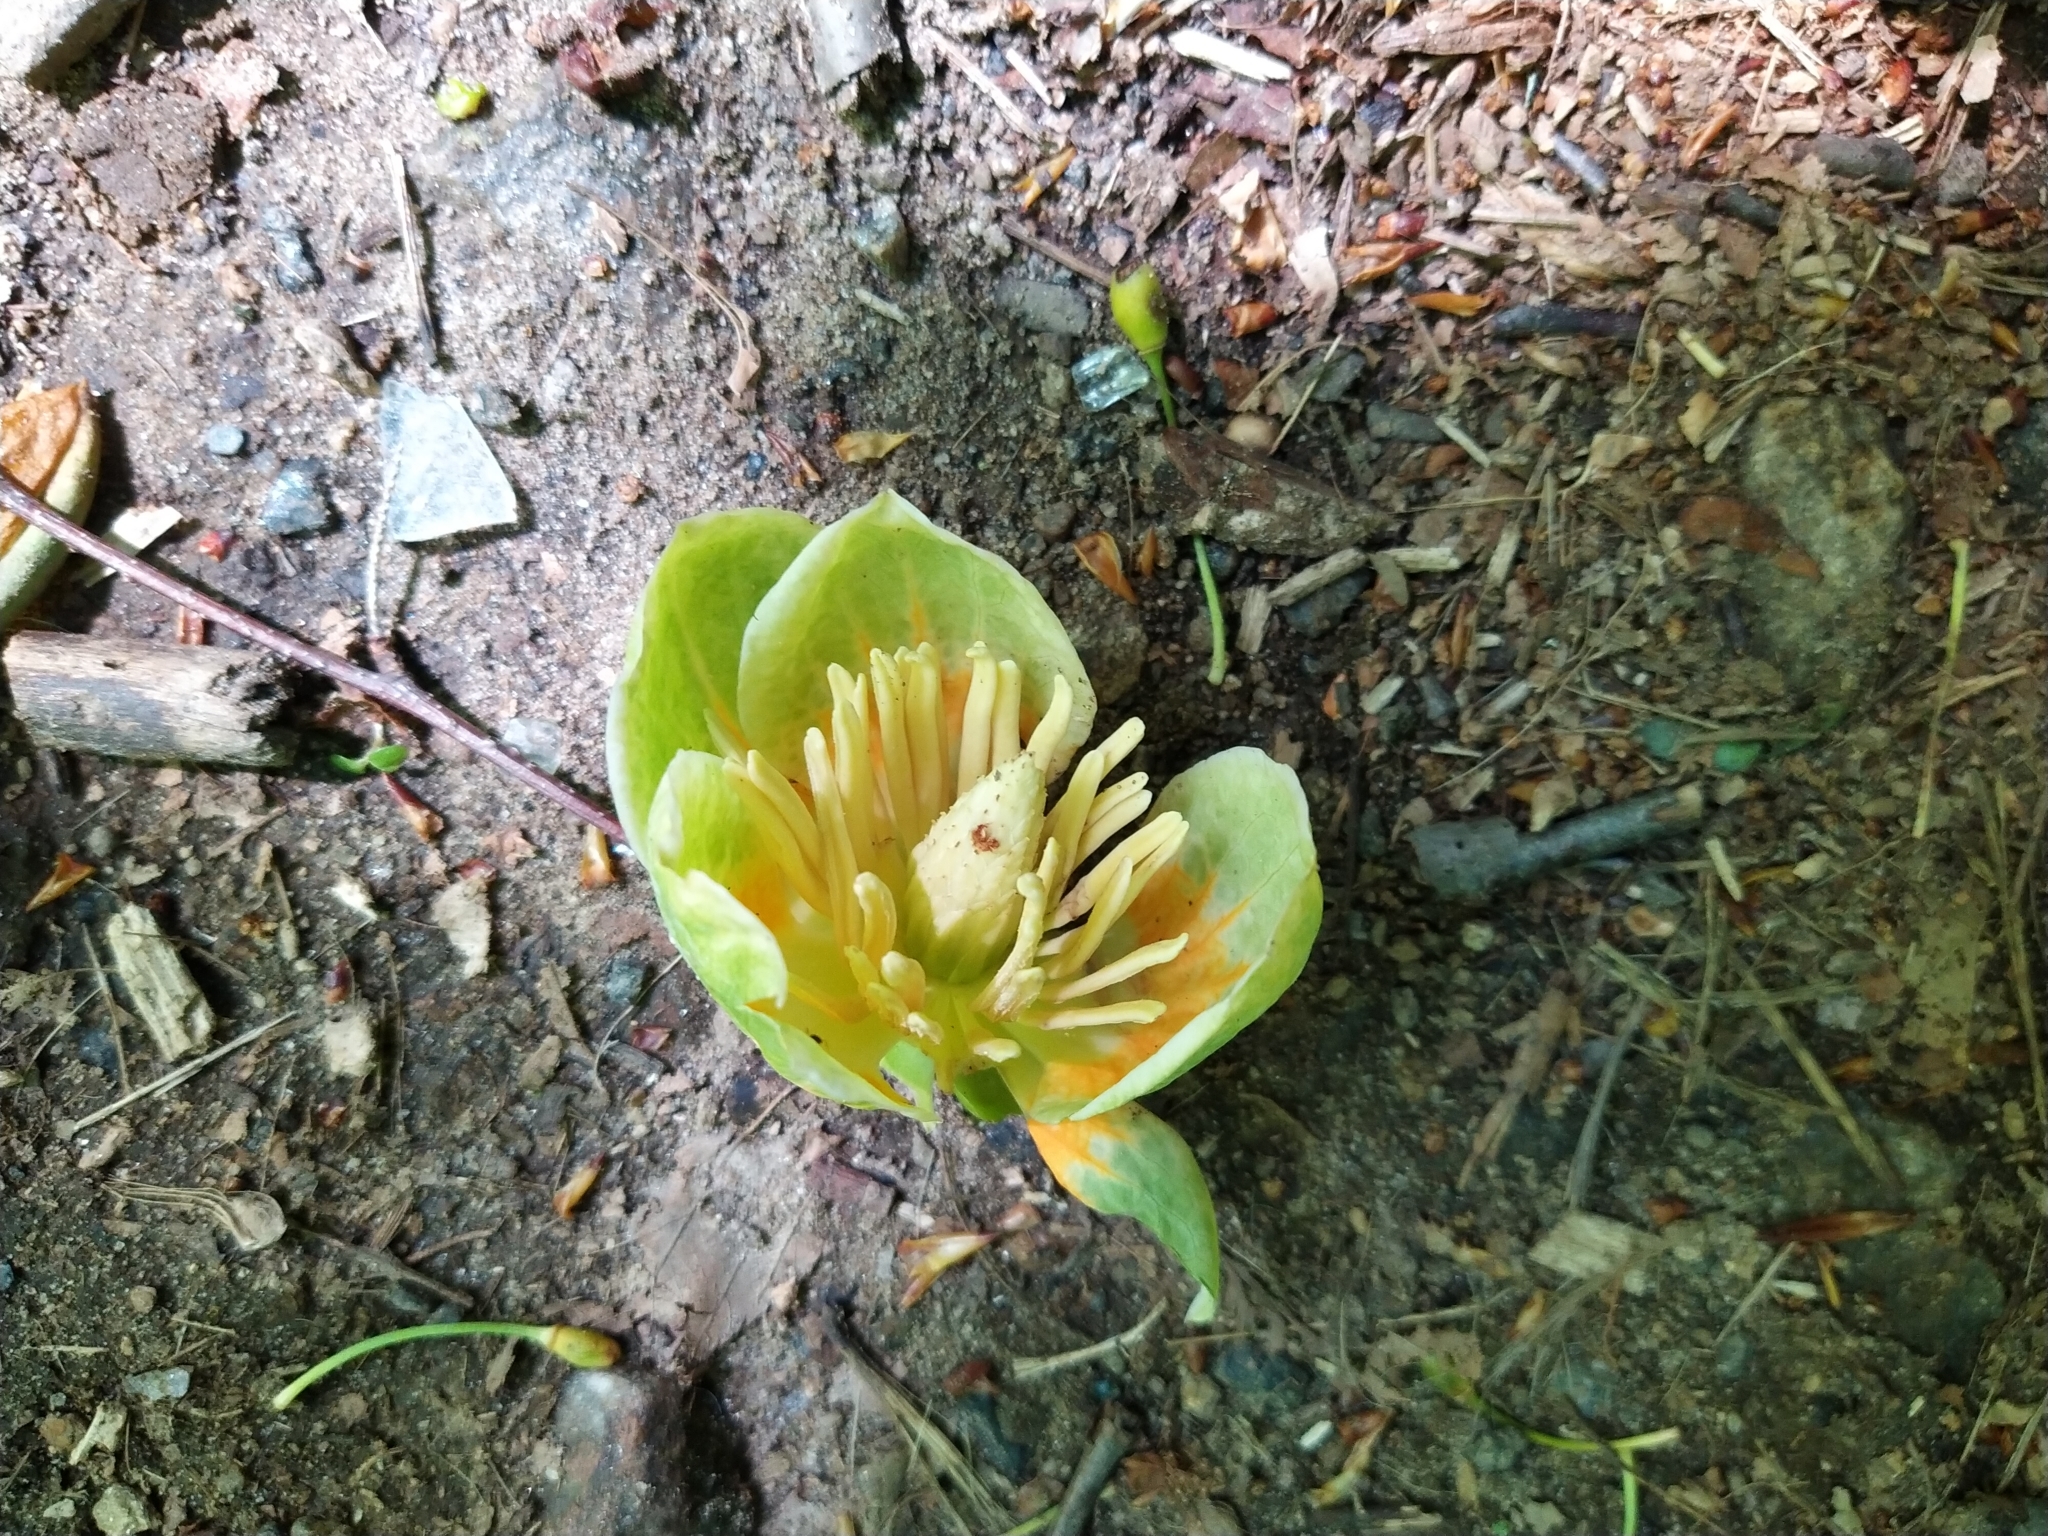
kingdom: Plantae
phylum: Tracheophyta
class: Magnoliopsida
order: Magnoliales
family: Magnoliaceae
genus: Liriodendron
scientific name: Liriodendron tulipifera
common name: Tulip tree
